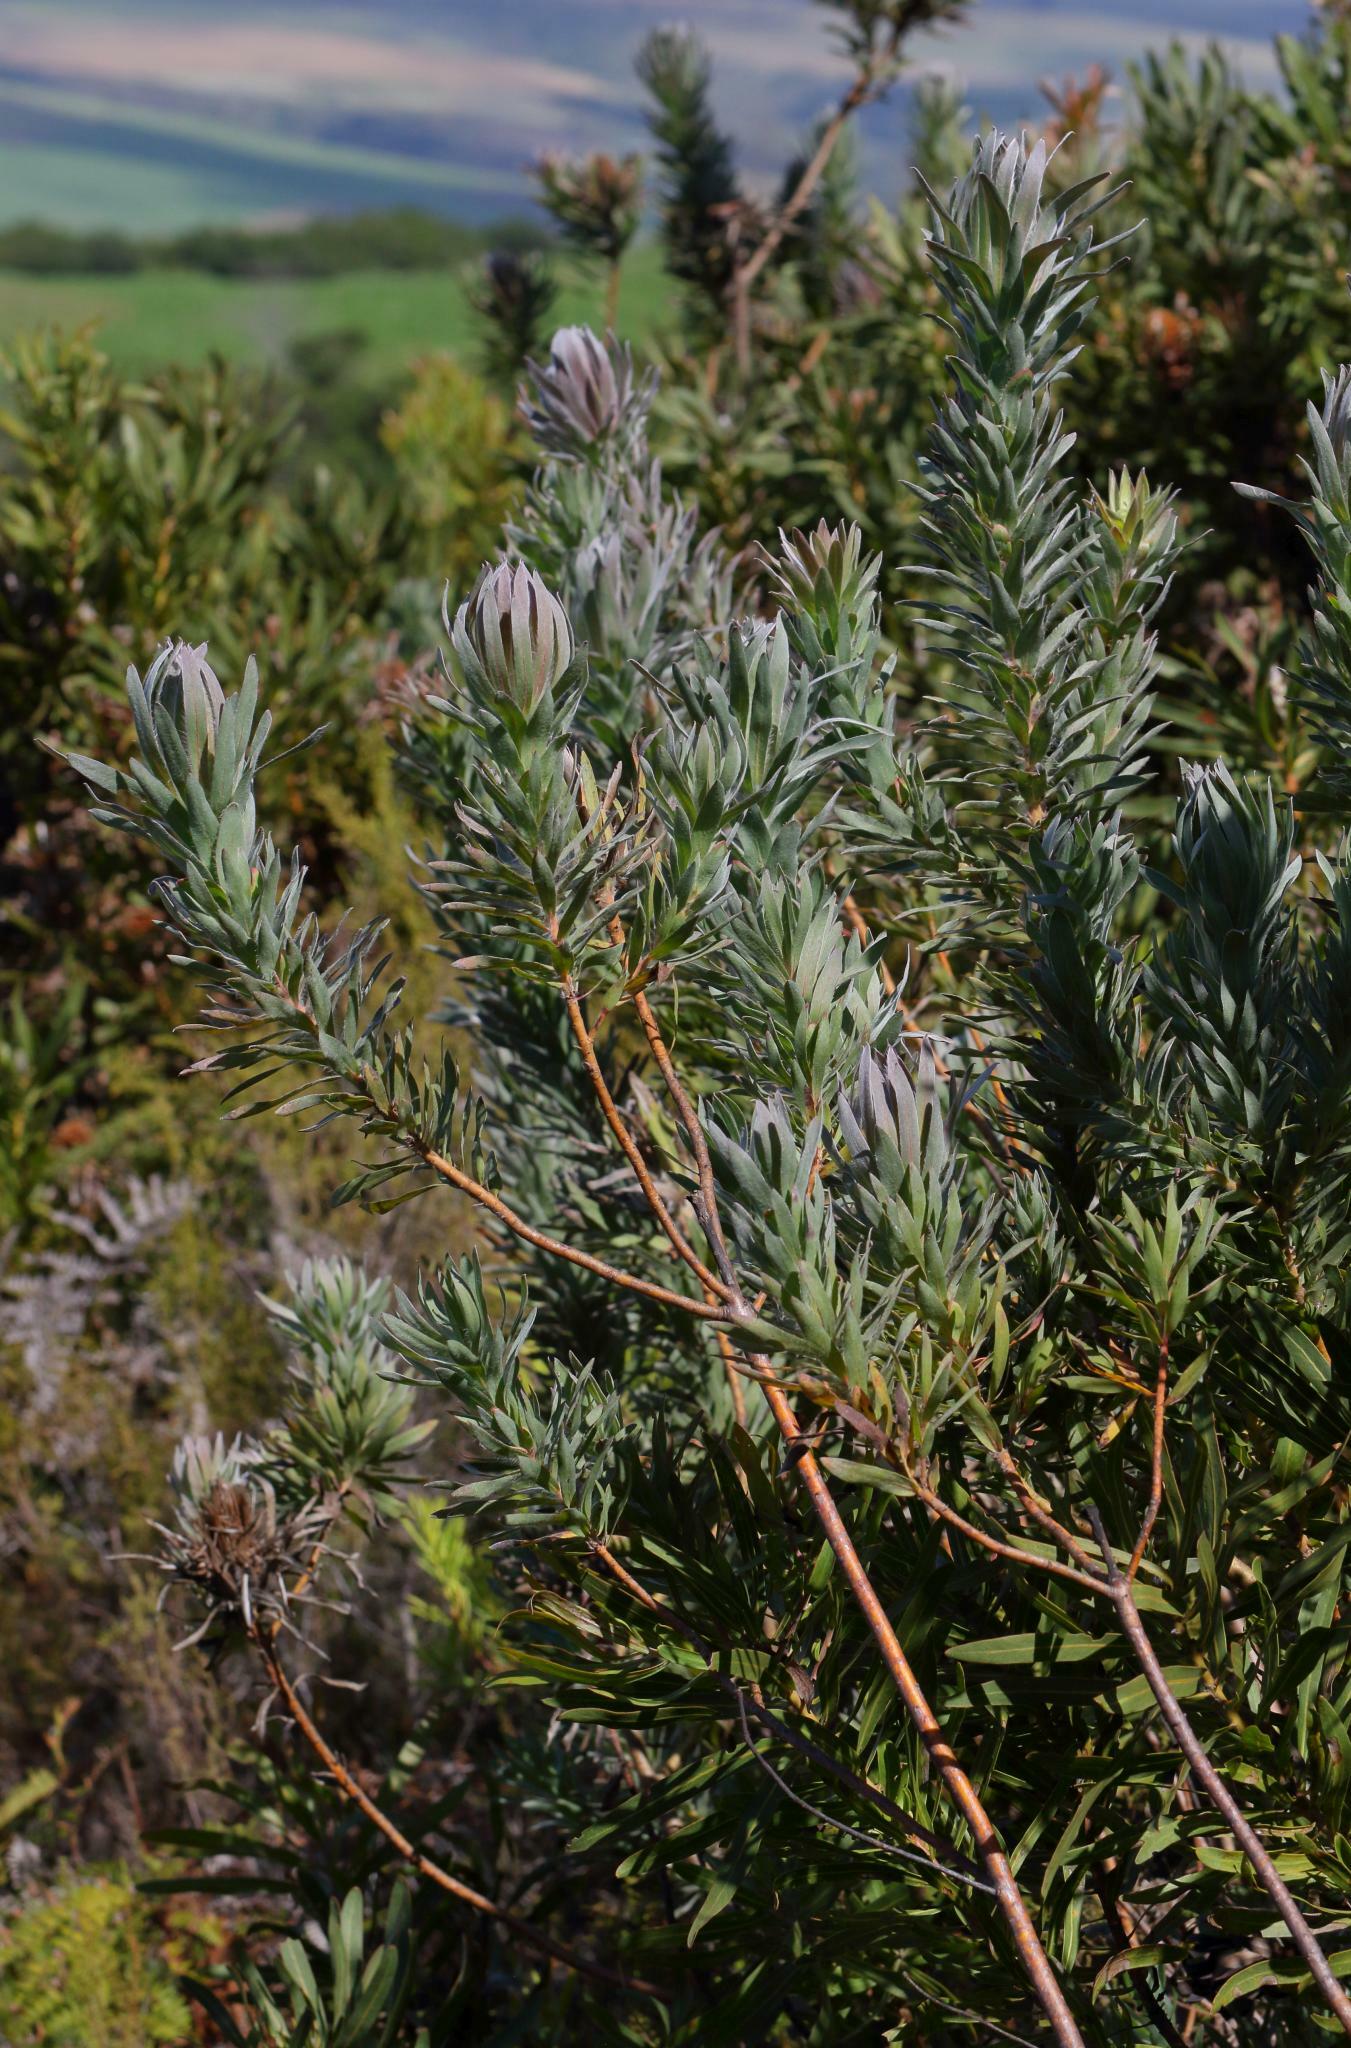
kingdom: Plantae
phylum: Tracheophyta
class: Magnoliopsida
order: Proteales
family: Proteaceae
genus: Protea
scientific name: Protea coronata
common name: Green sugarbush
